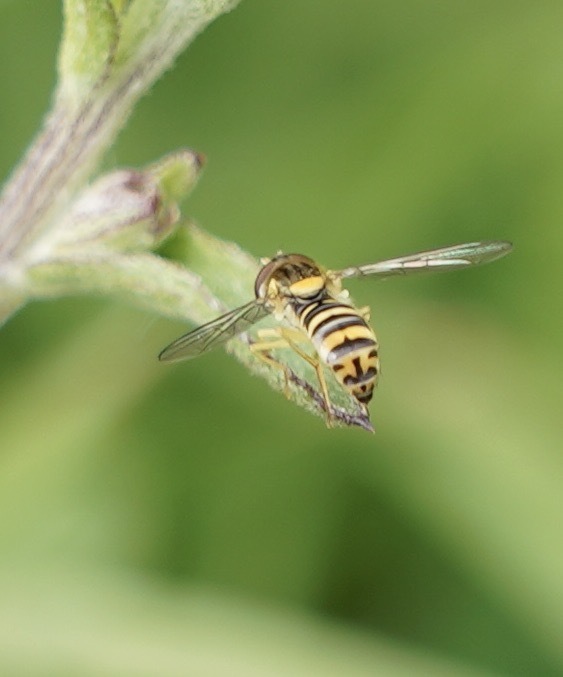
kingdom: Animalia
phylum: Arthropoda
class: Insecta
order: Diptera
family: Syrphidae
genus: Sphaerophoria
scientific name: Sphaerophoria
